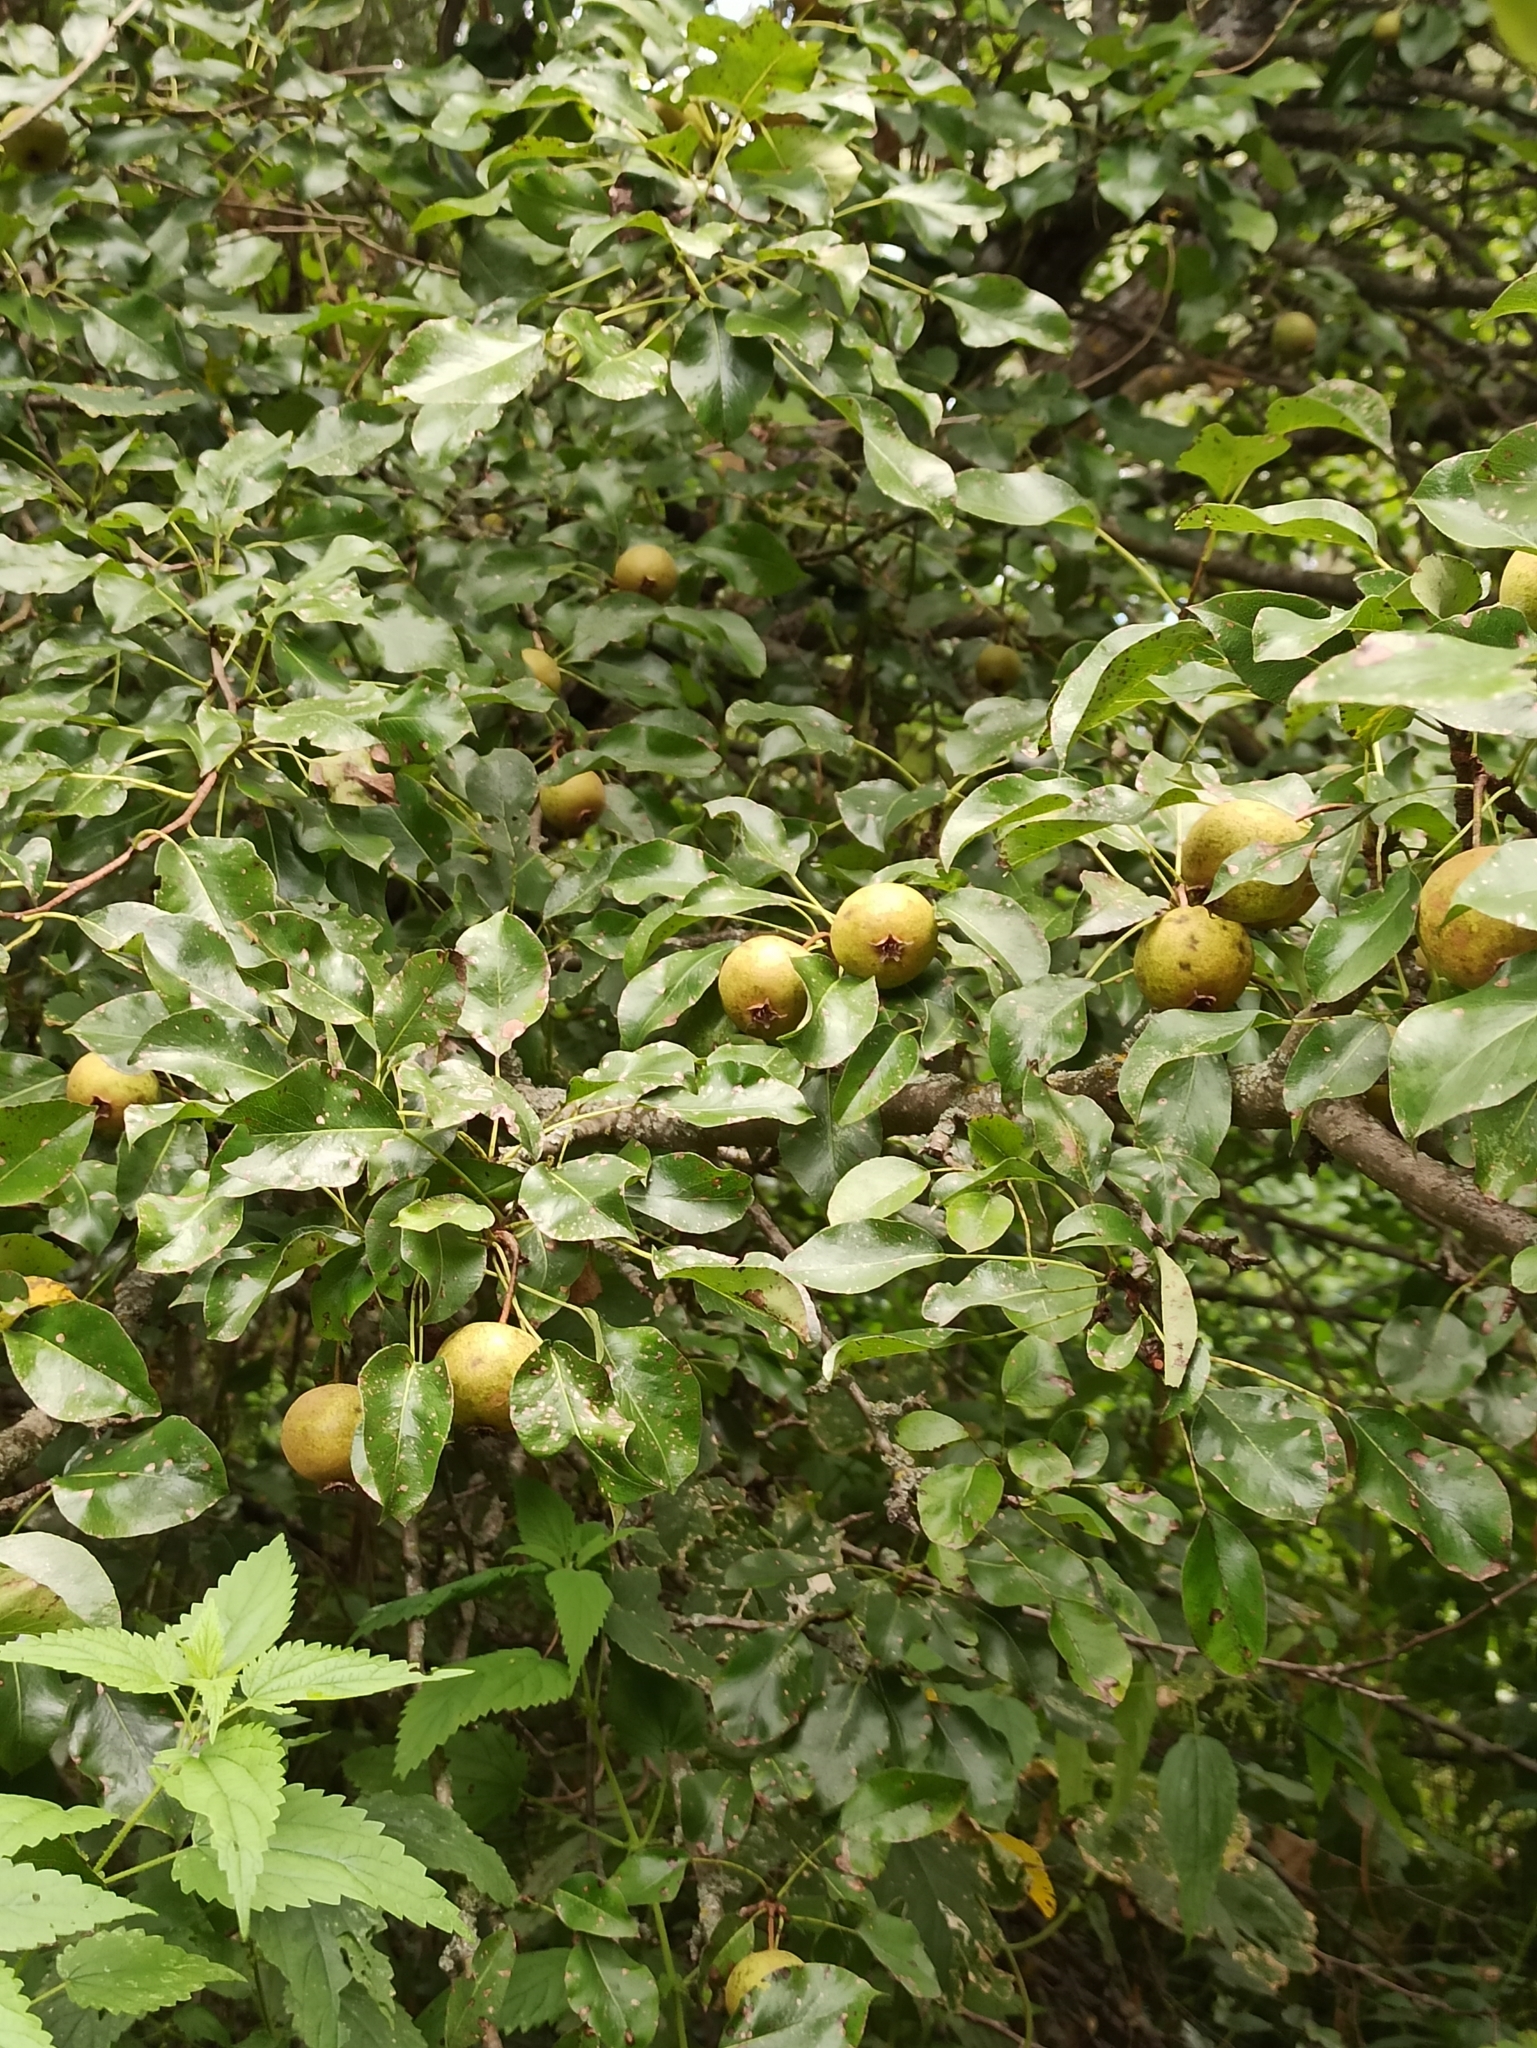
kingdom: Plantae
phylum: Tracheophyta
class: Magnoliopsida
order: Rosales
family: Rosaceae
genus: Pyrus
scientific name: Pyrus communis
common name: Pear
